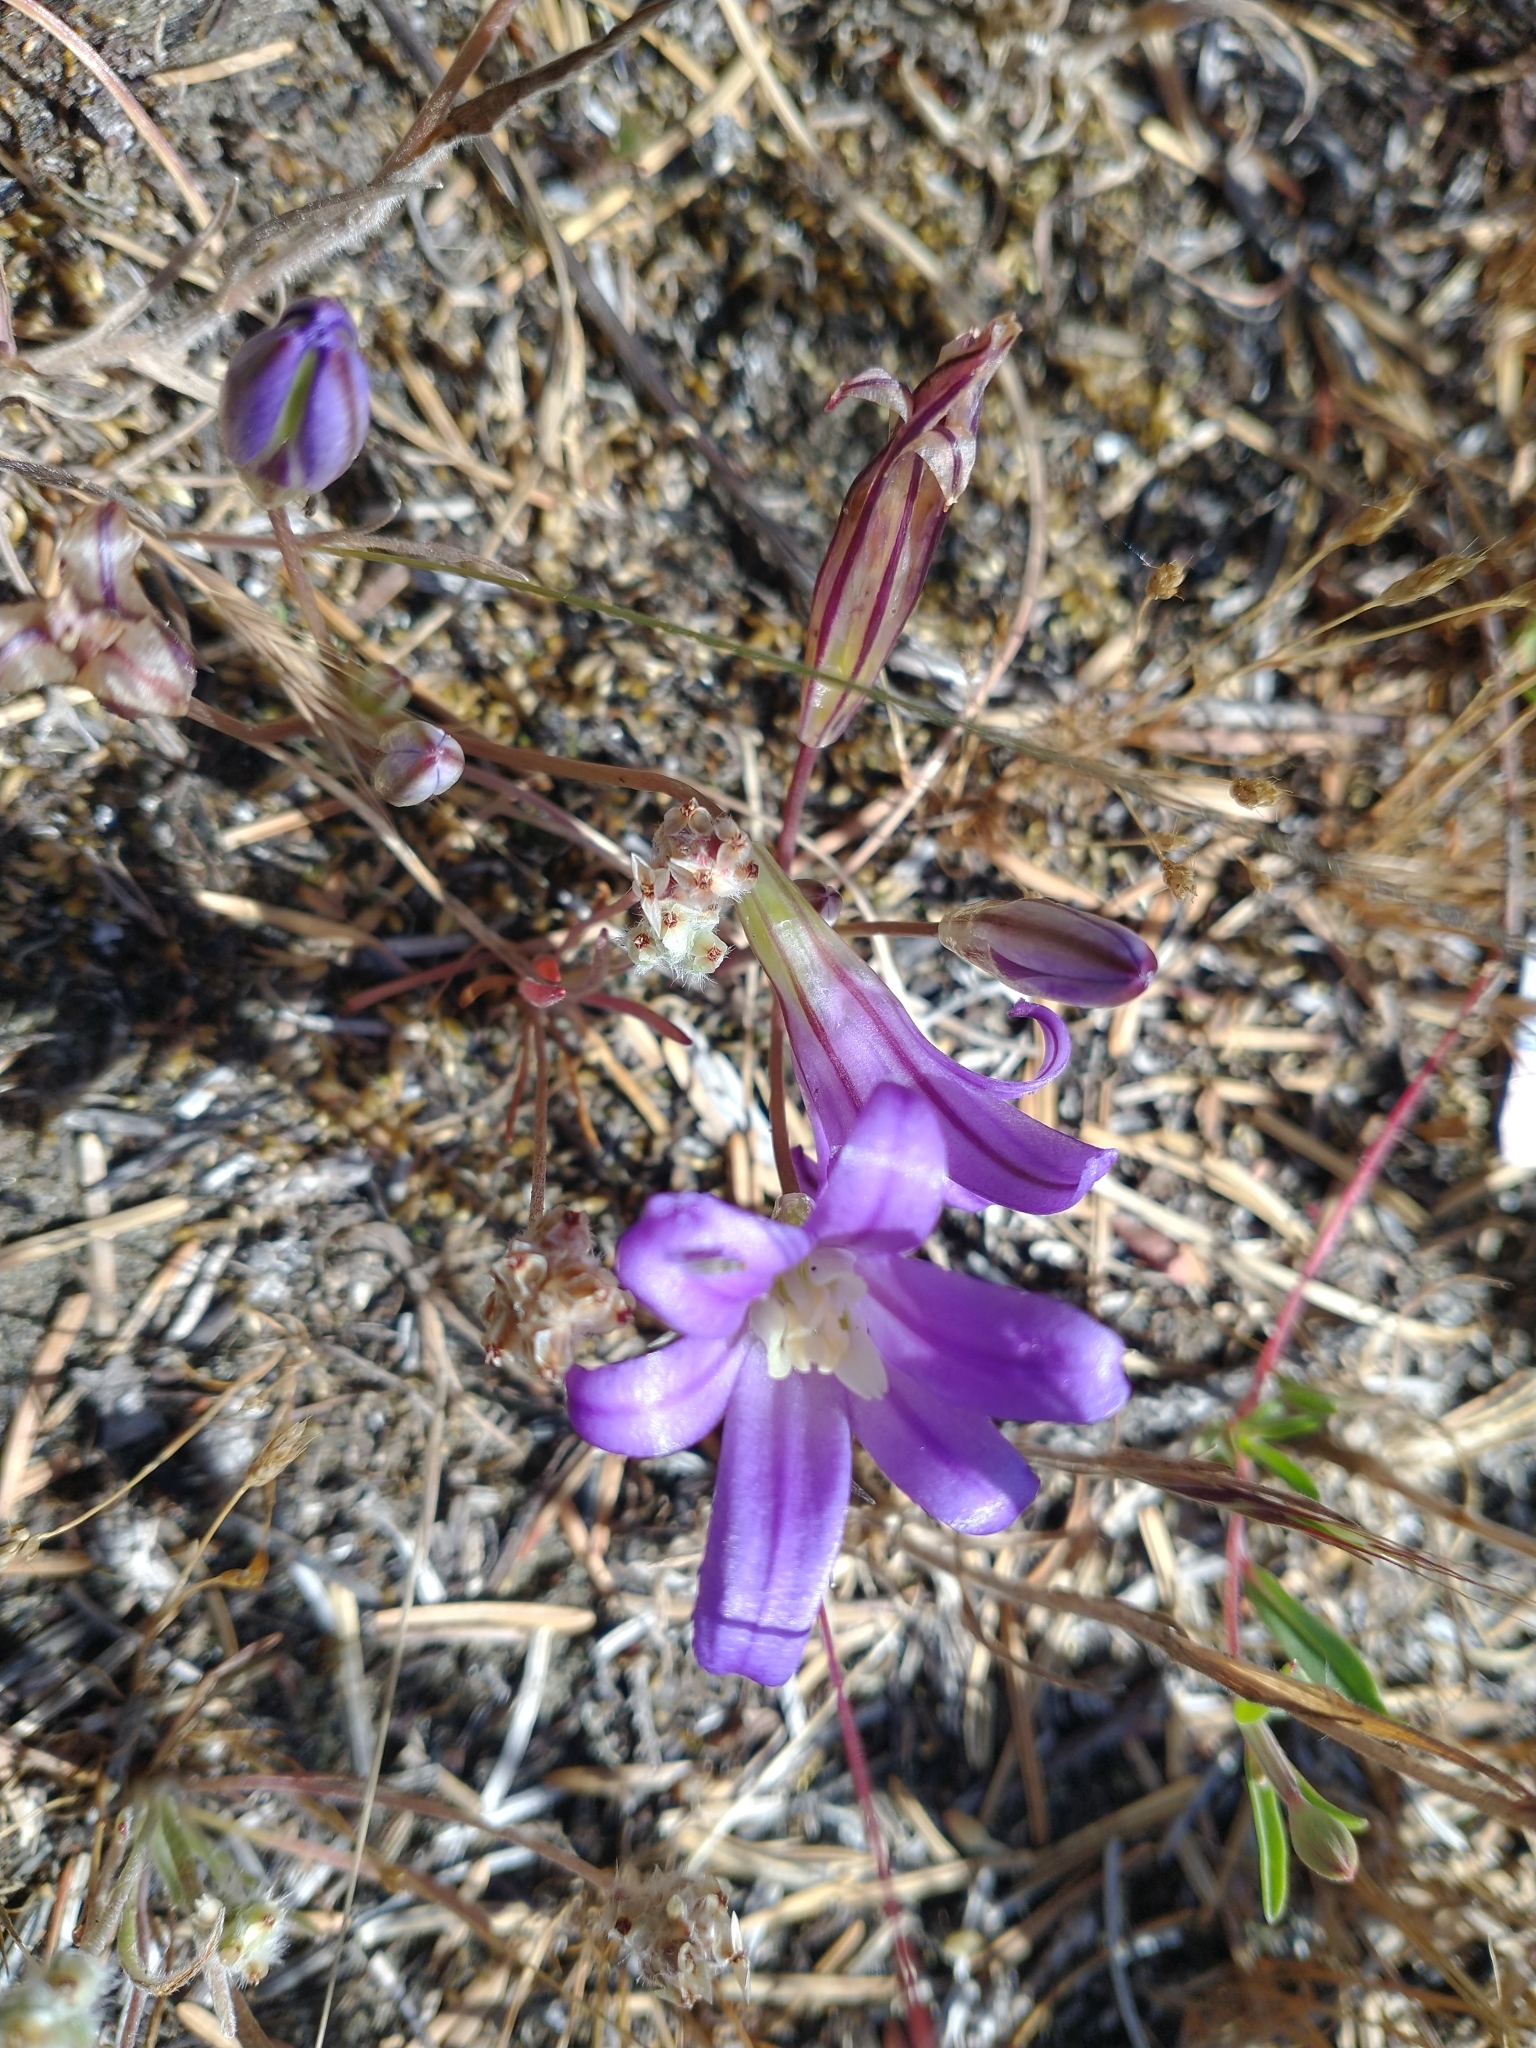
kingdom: Plantae
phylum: Tracheophyta
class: Liliopsida
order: Asparagales
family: Asparagaceae
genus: Brodiaea
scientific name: Brodiaea terrestris
